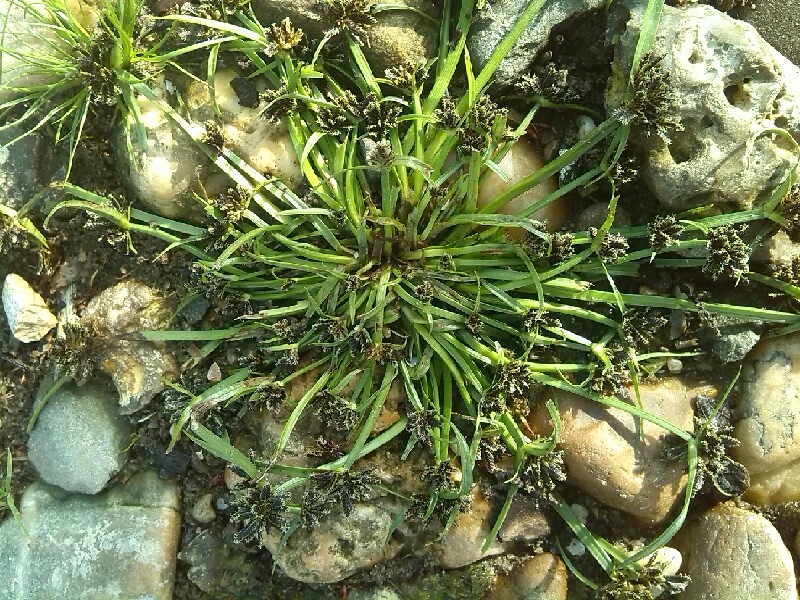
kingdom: Plantae
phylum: Tracheophyta
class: Liliopsida
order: Poales
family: Cyperaceae
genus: Cyperus
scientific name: Cyperus fuscus
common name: Brown galingale
